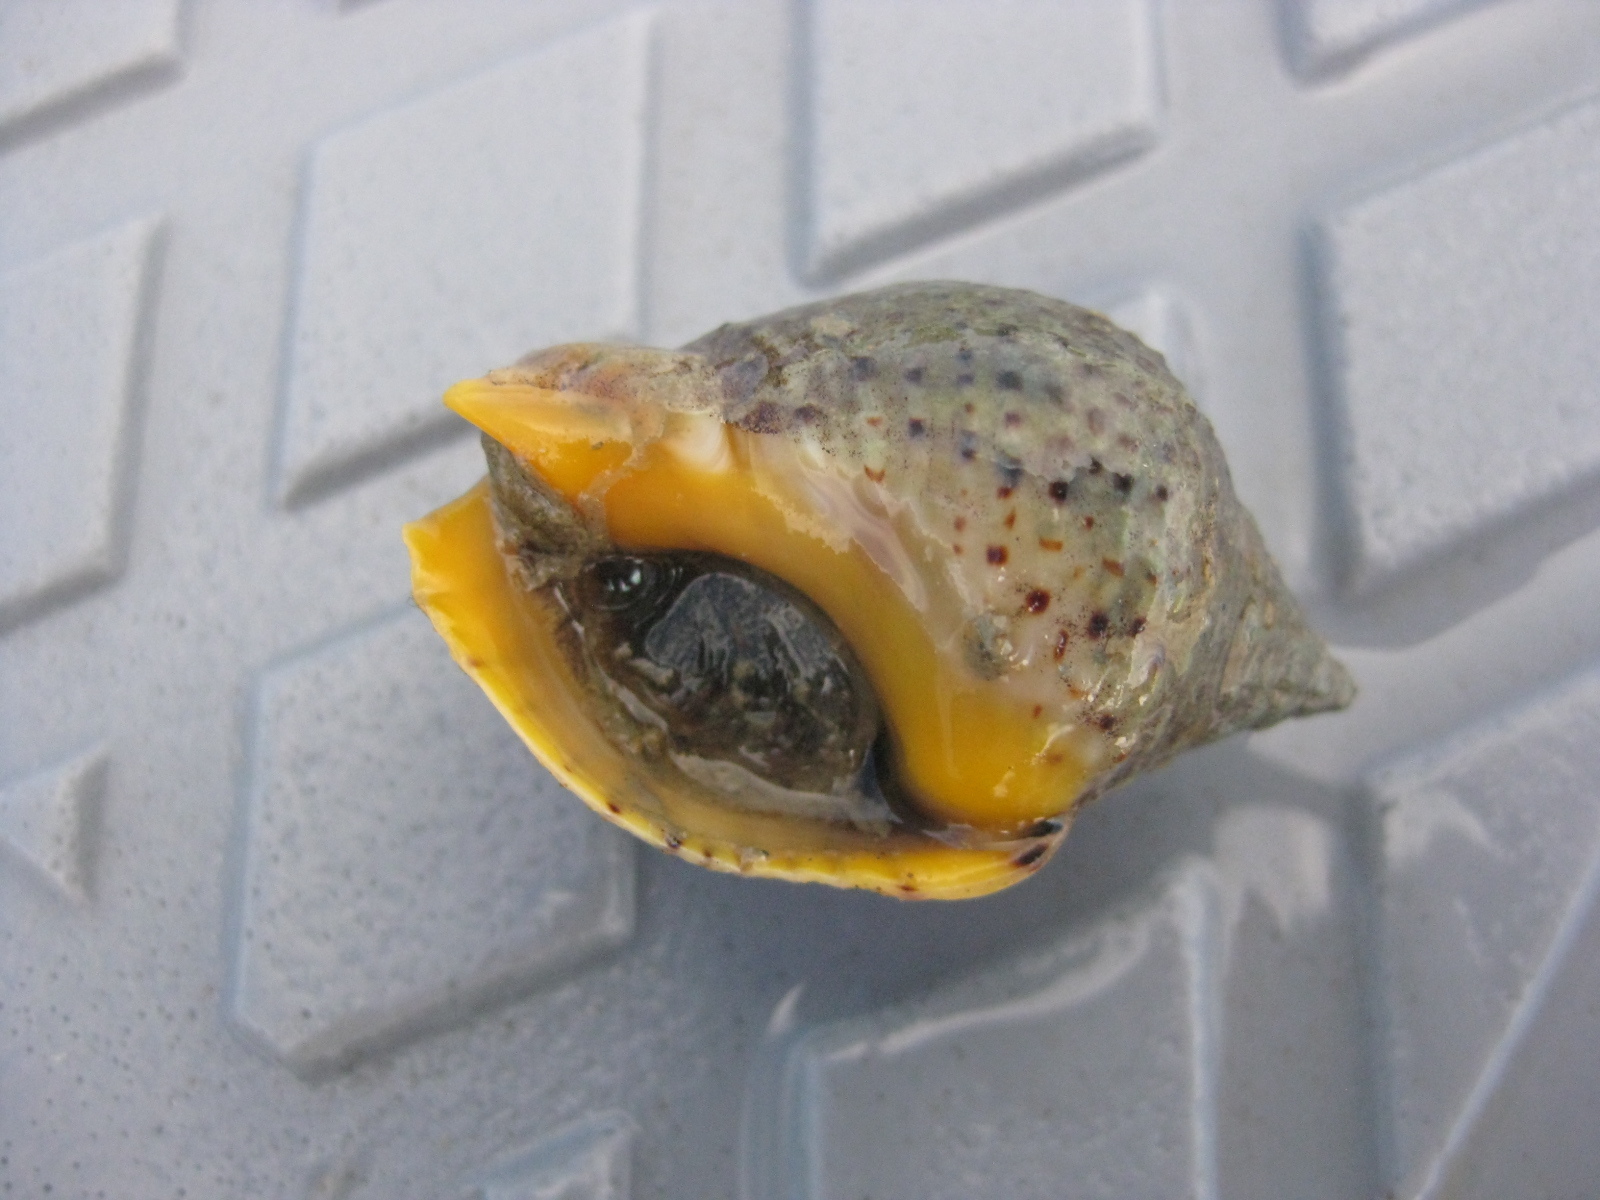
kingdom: Animalia
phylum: Mollusca
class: Gastropoda
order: Neogastropoda
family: Cominellidae
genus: Cominella
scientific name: Cominella adspersa
